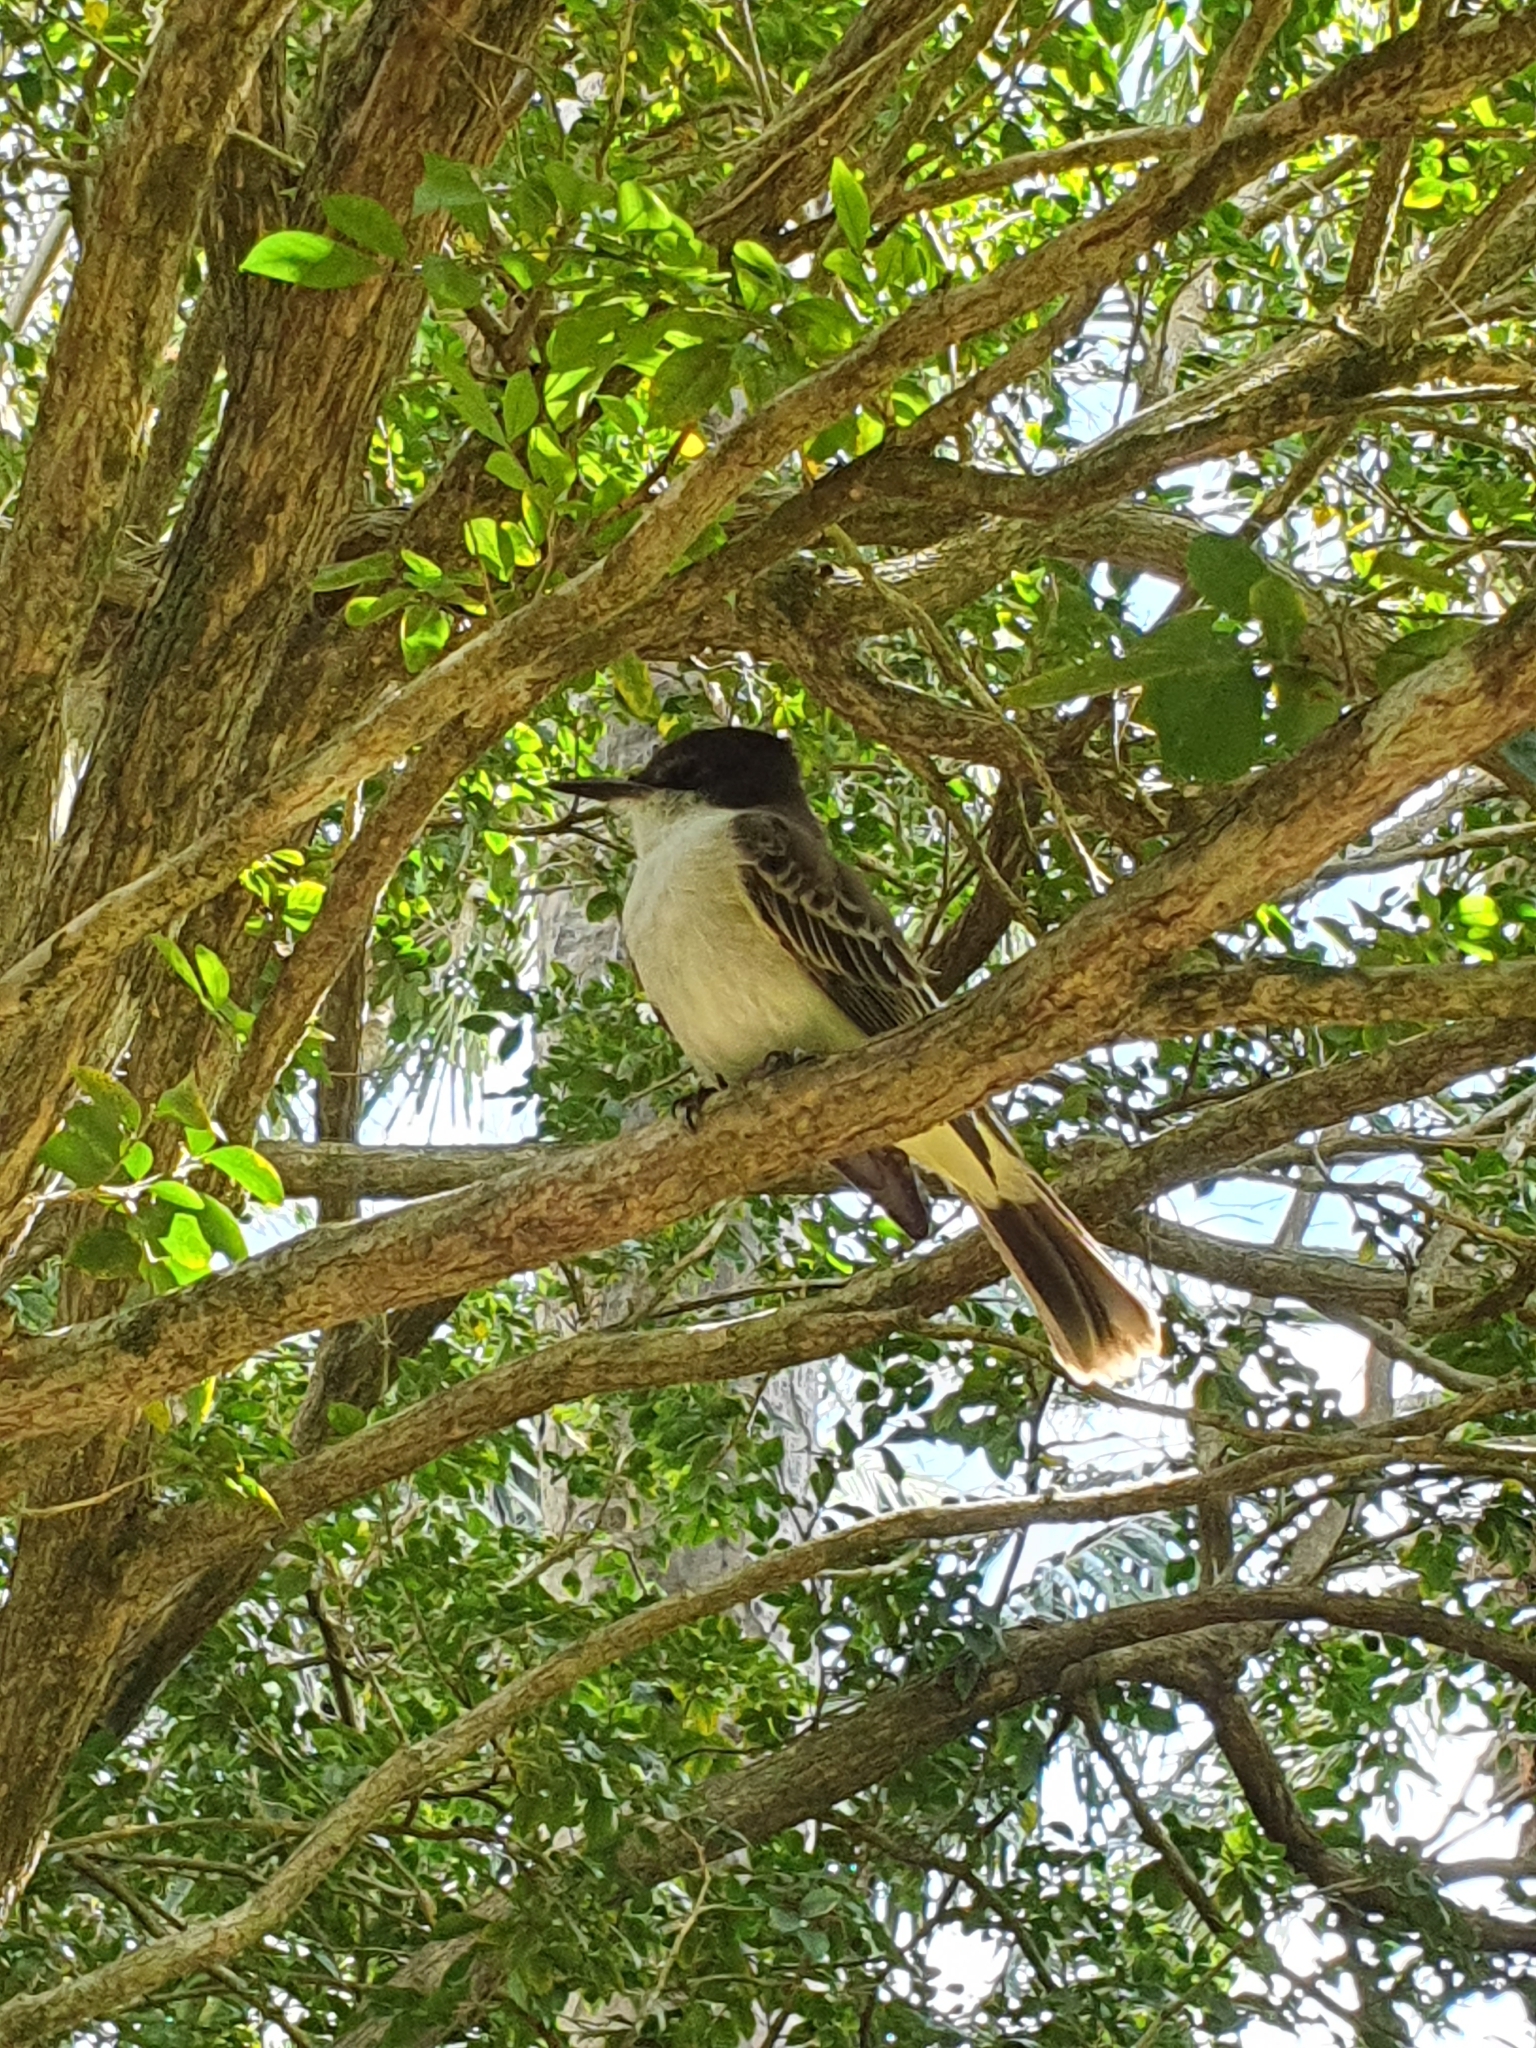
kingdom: Animalia
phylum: Chordata
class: Aves
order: Passeriformes
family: Tyrannidae
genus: Tyrannus
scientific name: Tyrannus caudifasciatus
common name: Loggerhead kingbird
